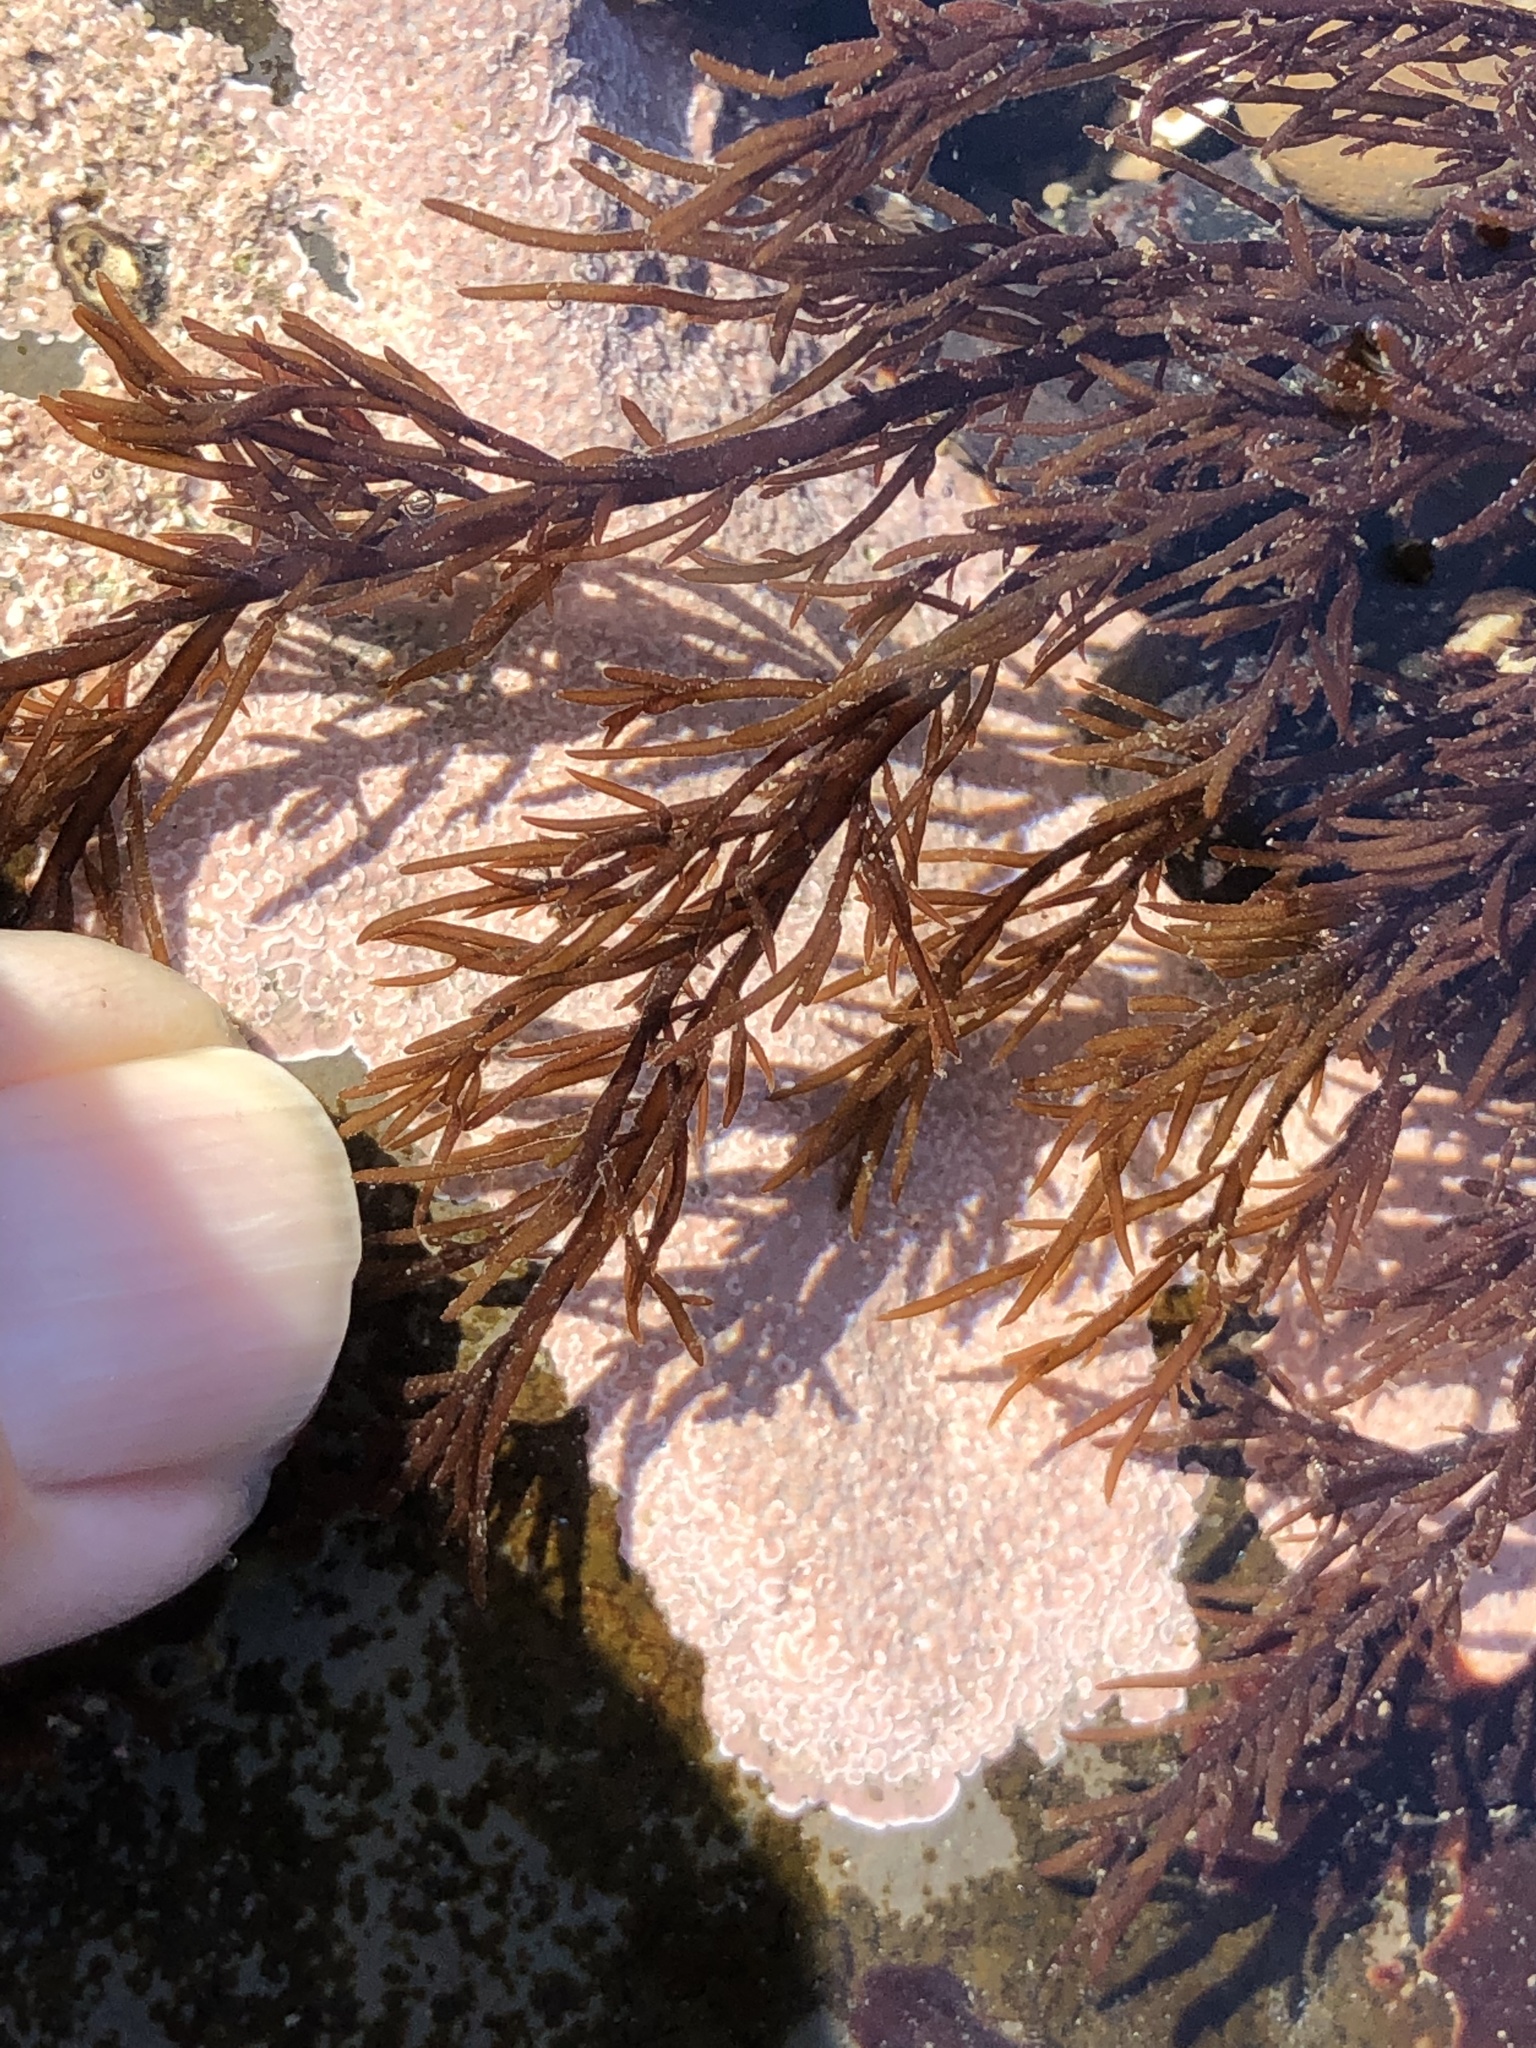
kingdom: Plantae
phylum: Rhodophyta
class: Florideophyceae
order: Gigartinales
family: Dumontiaceae
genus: Cryptosiphonia
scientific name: Cryptosiphonia woodii
